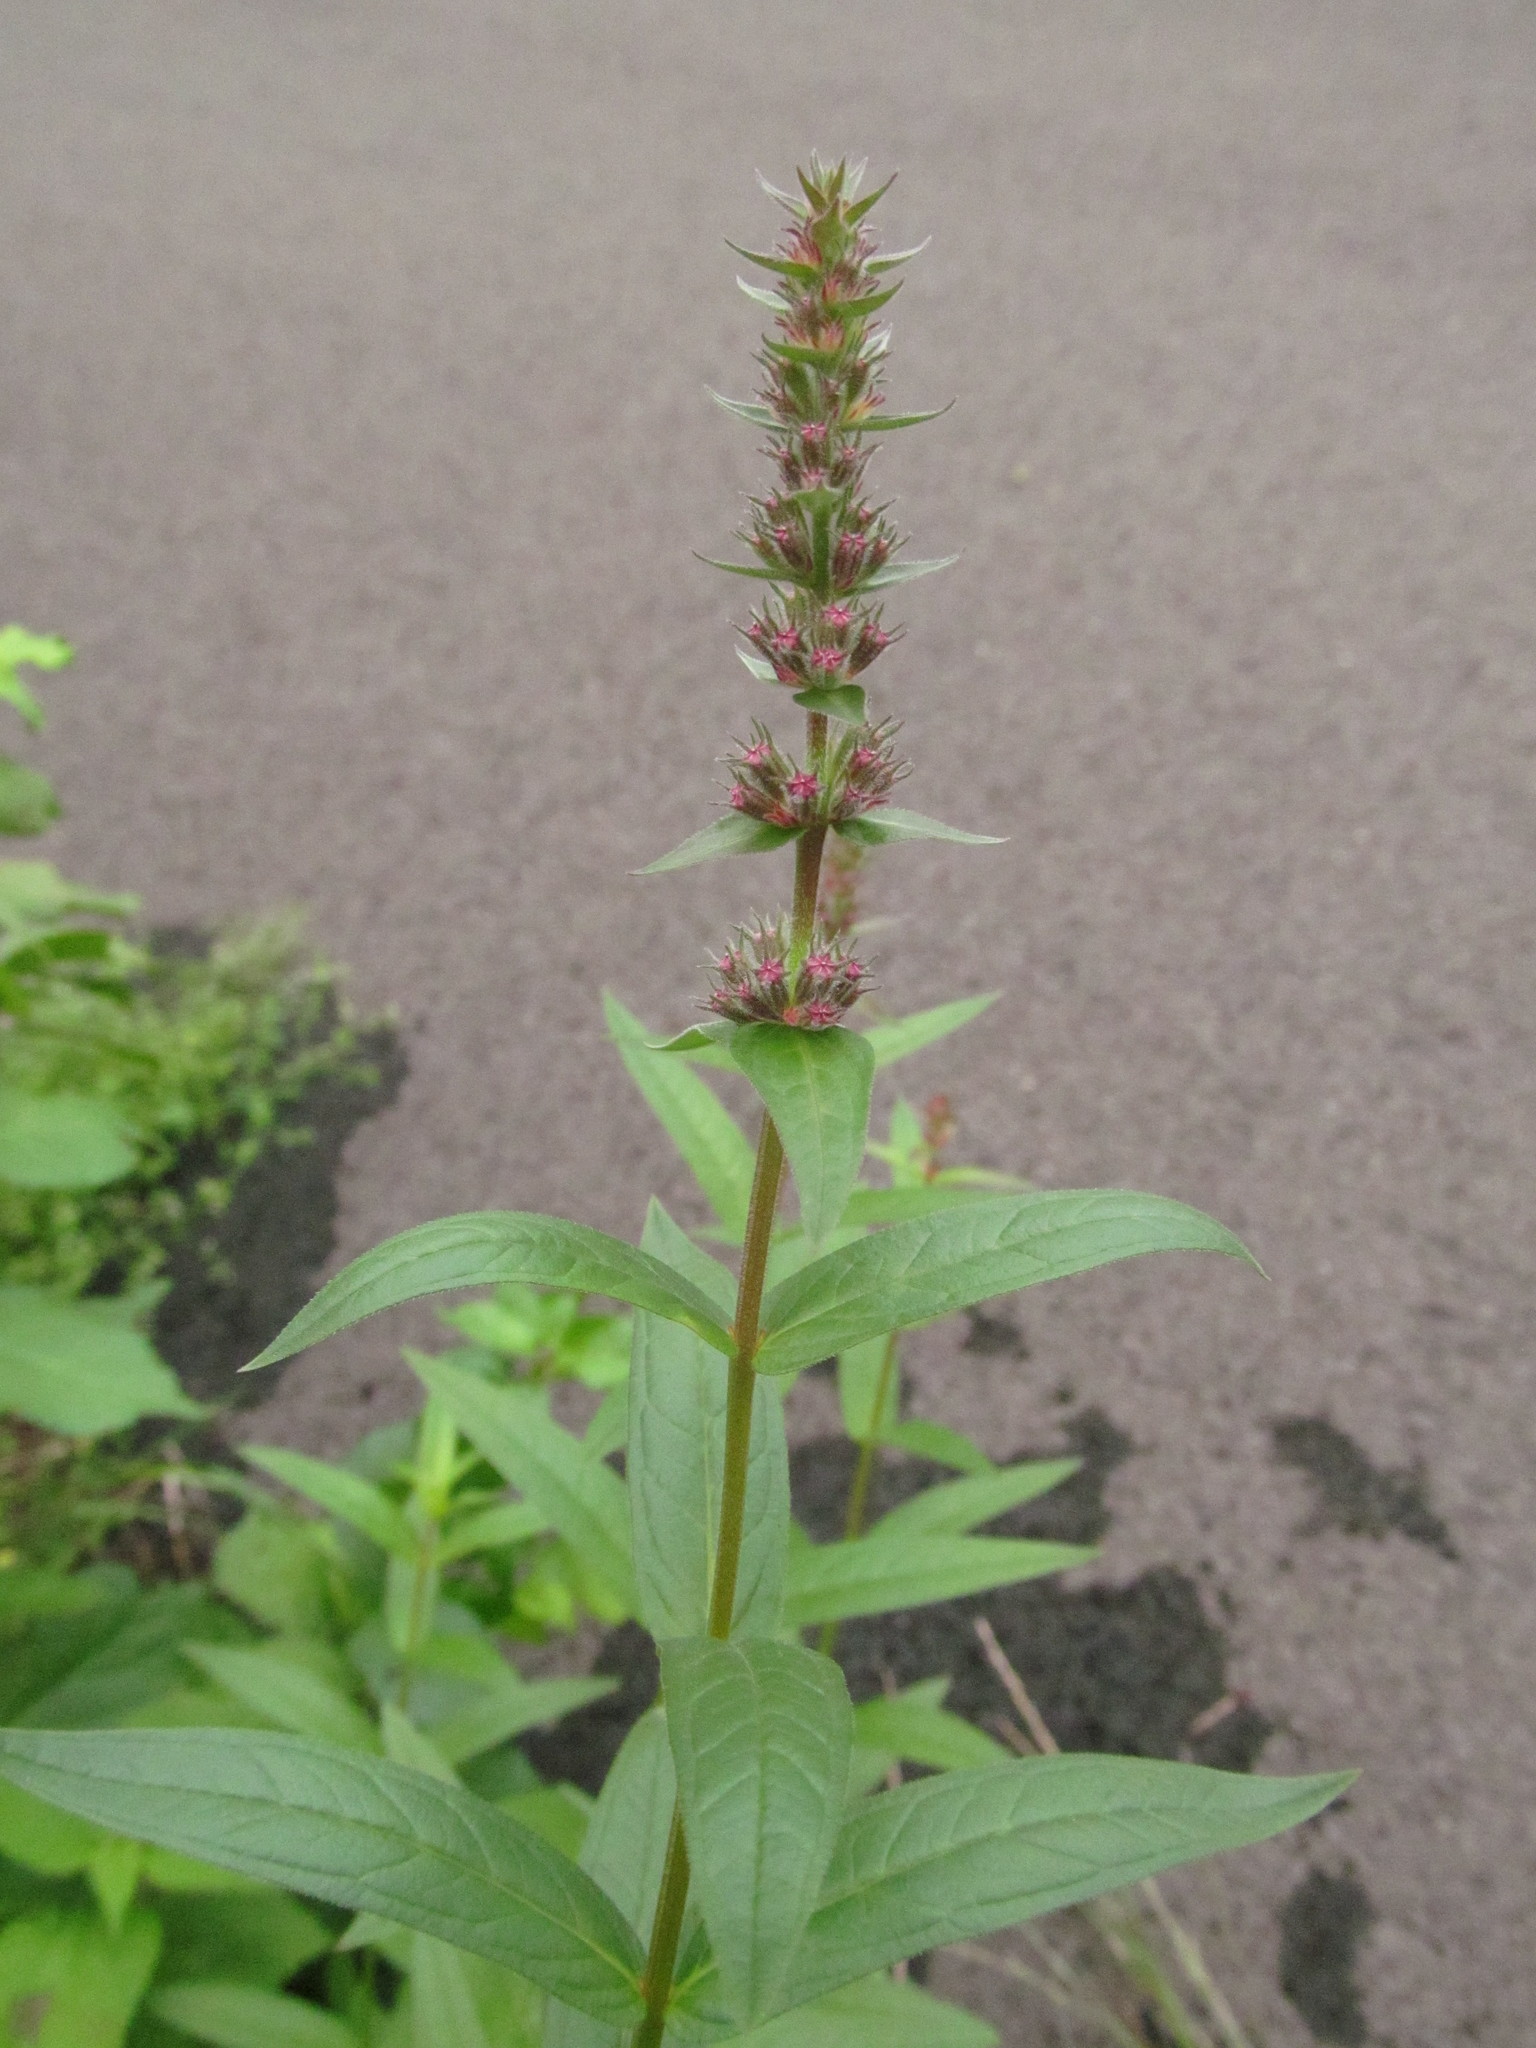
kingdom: Plantae
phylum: Tracheophyta
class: Magnoliopsida
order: Myrtales
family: Lythraceae
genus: Lythrum
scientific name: Lythrum salicaria
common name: Purple loosestrife
